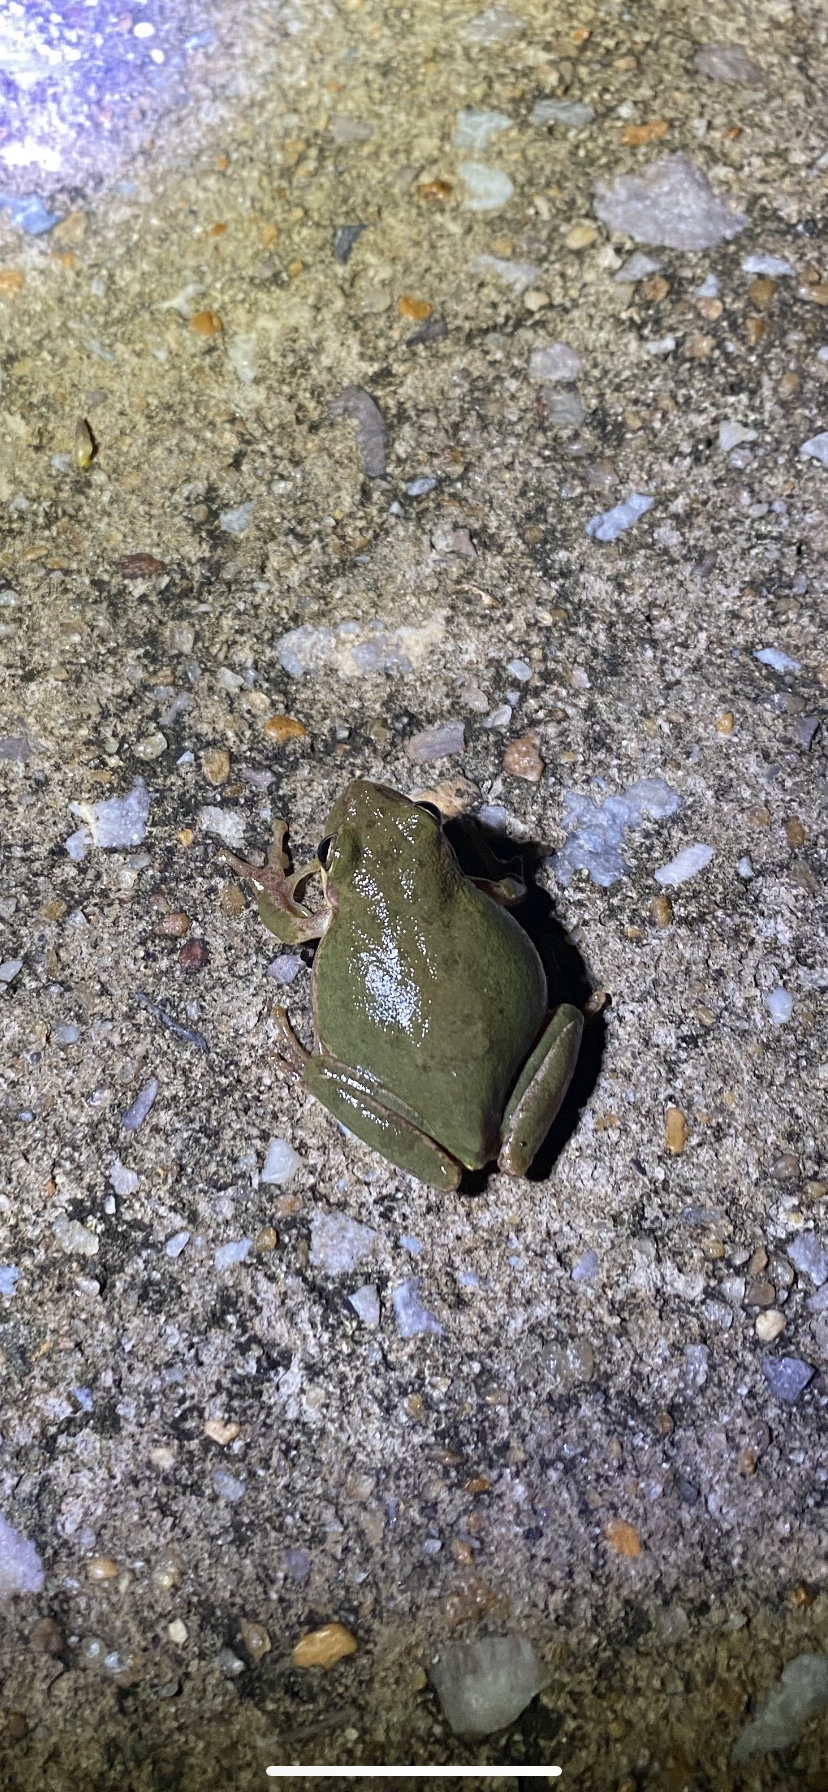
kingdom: Animalia
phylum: Chordata
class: Amphibia
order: Anura
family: Hylidae
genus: Dryophytes
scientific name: Dryophytes squirellus
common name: Squirrel treefrog
